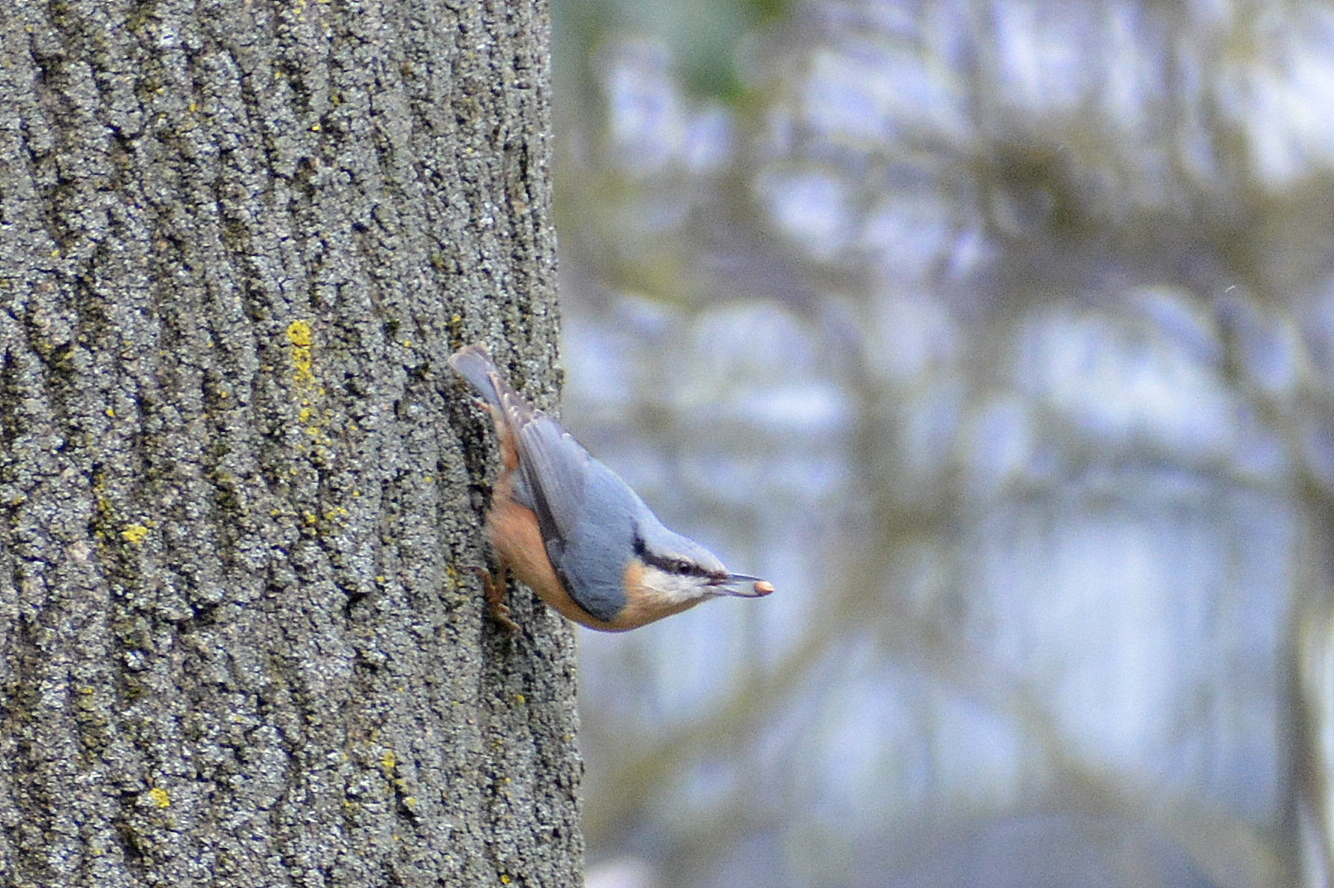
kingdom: Animalia
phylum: Chordata
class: Aves
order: Passeriformes
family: Sittidae
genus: Sitta
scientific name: Sitta europaea
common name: Eurasian nuthatch
